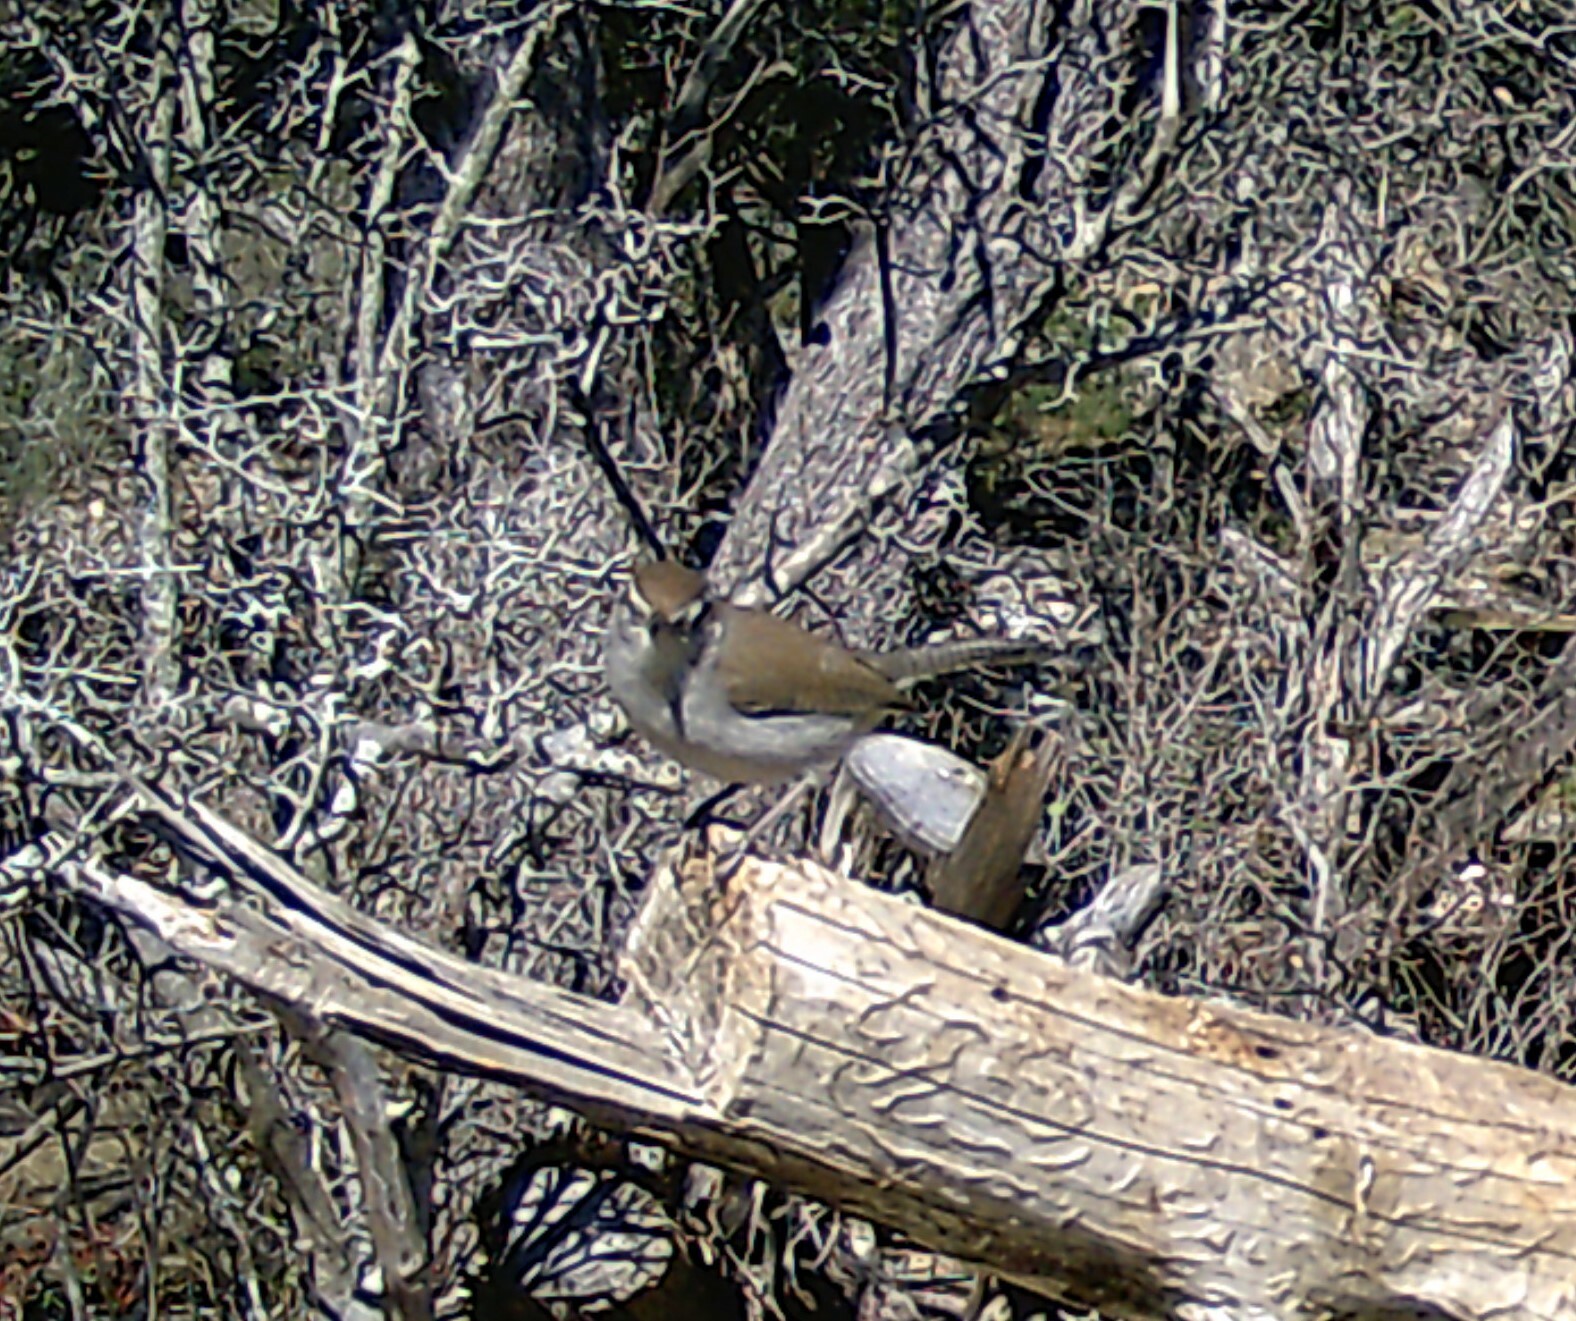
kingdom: Animalia
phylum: Chordata
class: Aves
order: Passeriformes
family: Troglodytidae
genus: Thryomanes
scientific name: Thryomanes bewickii
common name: Bewick's wren
